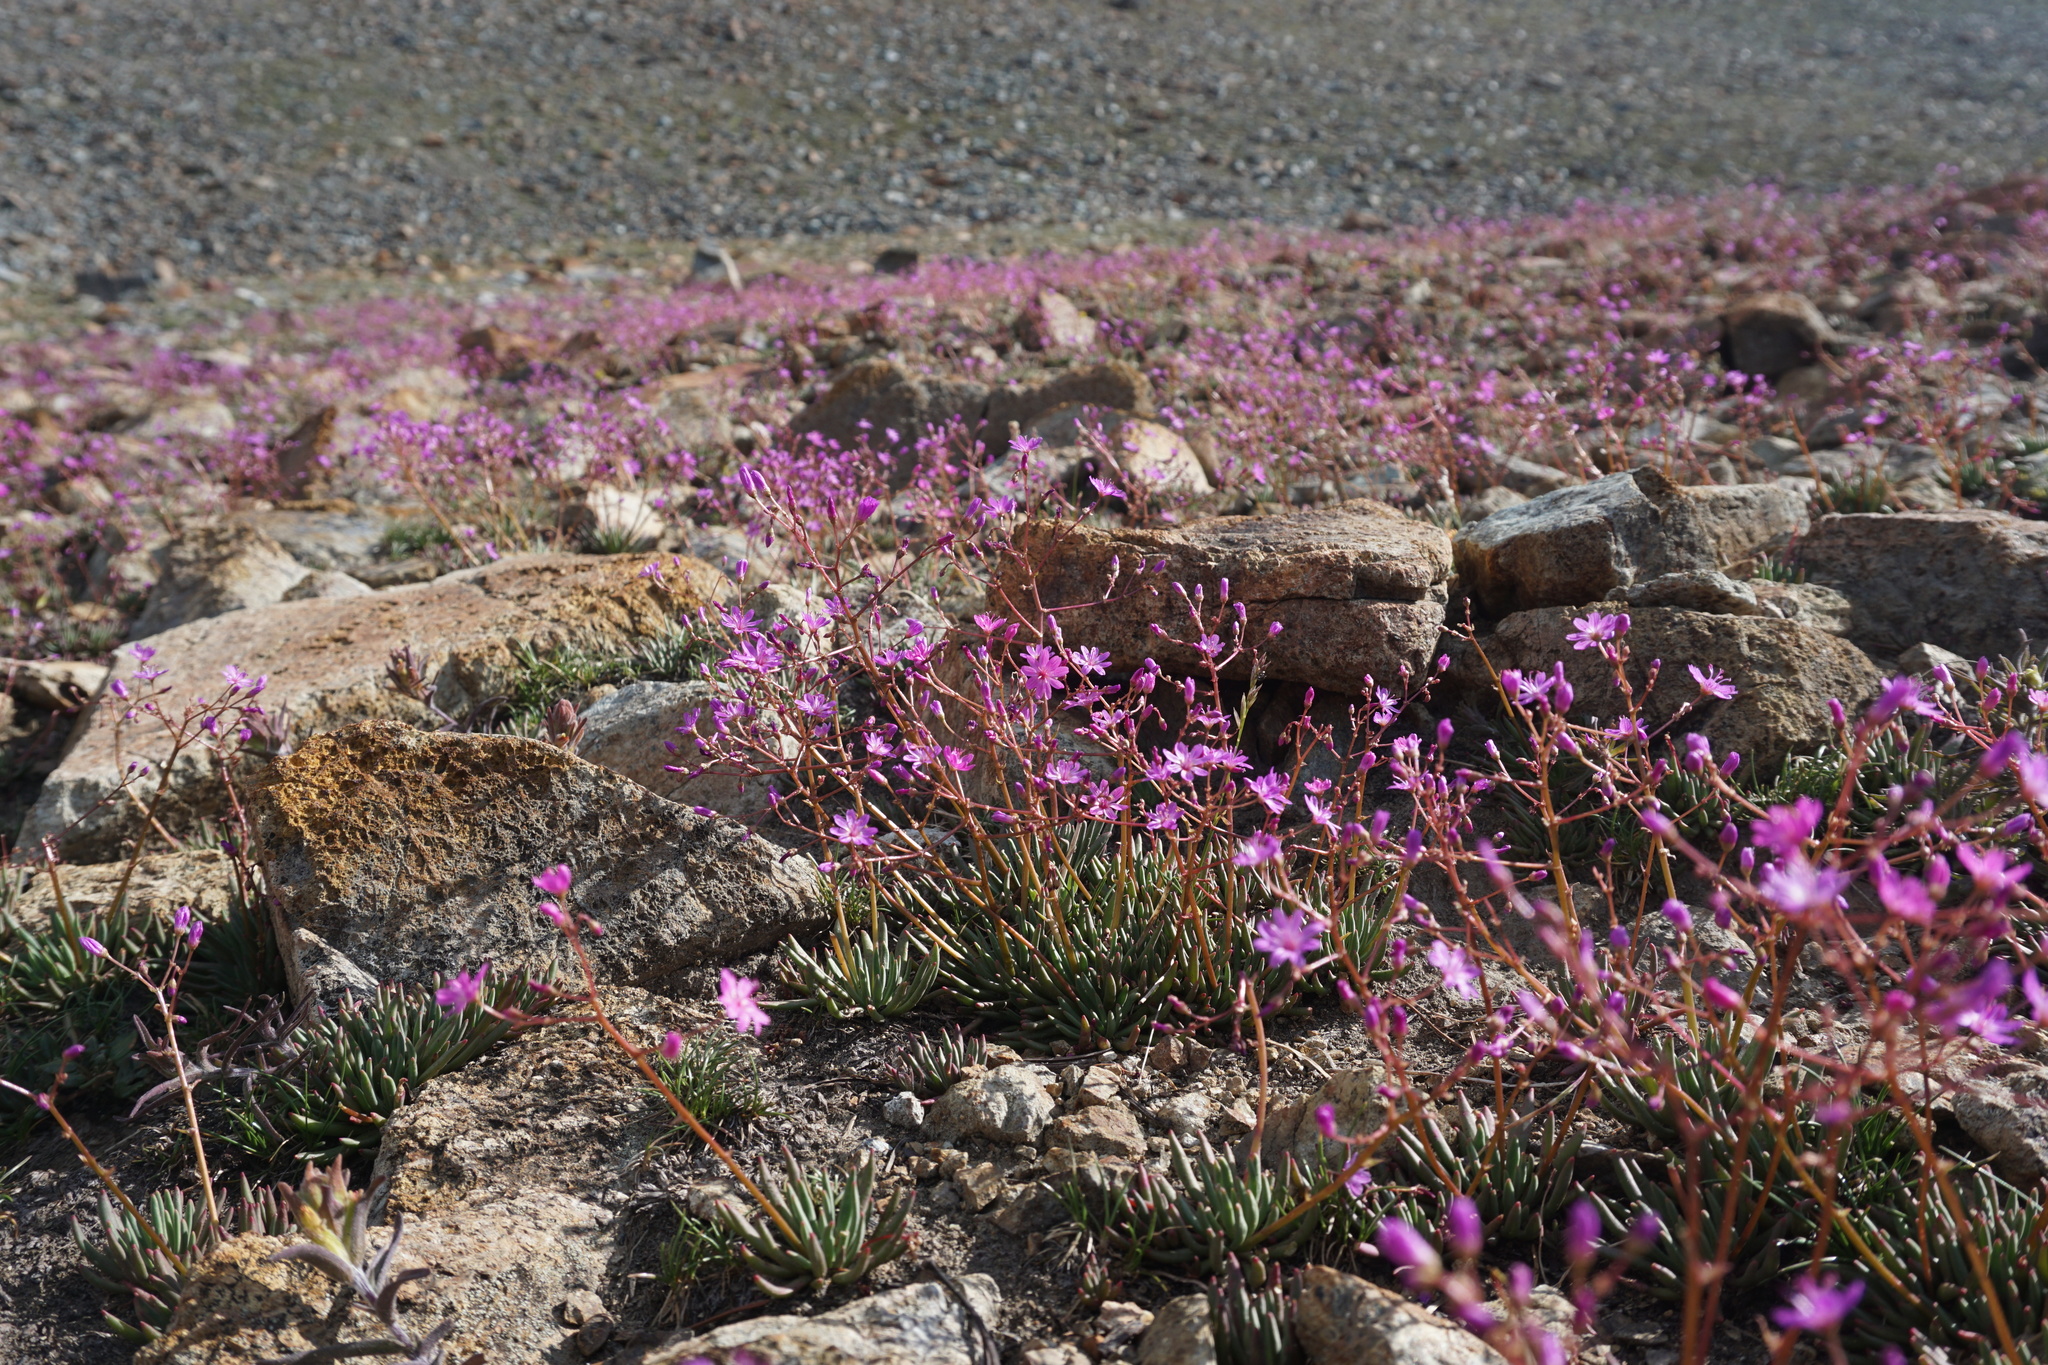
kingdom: Plantae
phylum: Tracheophyta
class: Magnoliopsida
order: Caryophyllales
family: Montiaceae
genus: Lewisia
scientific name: Lewisia leeana
